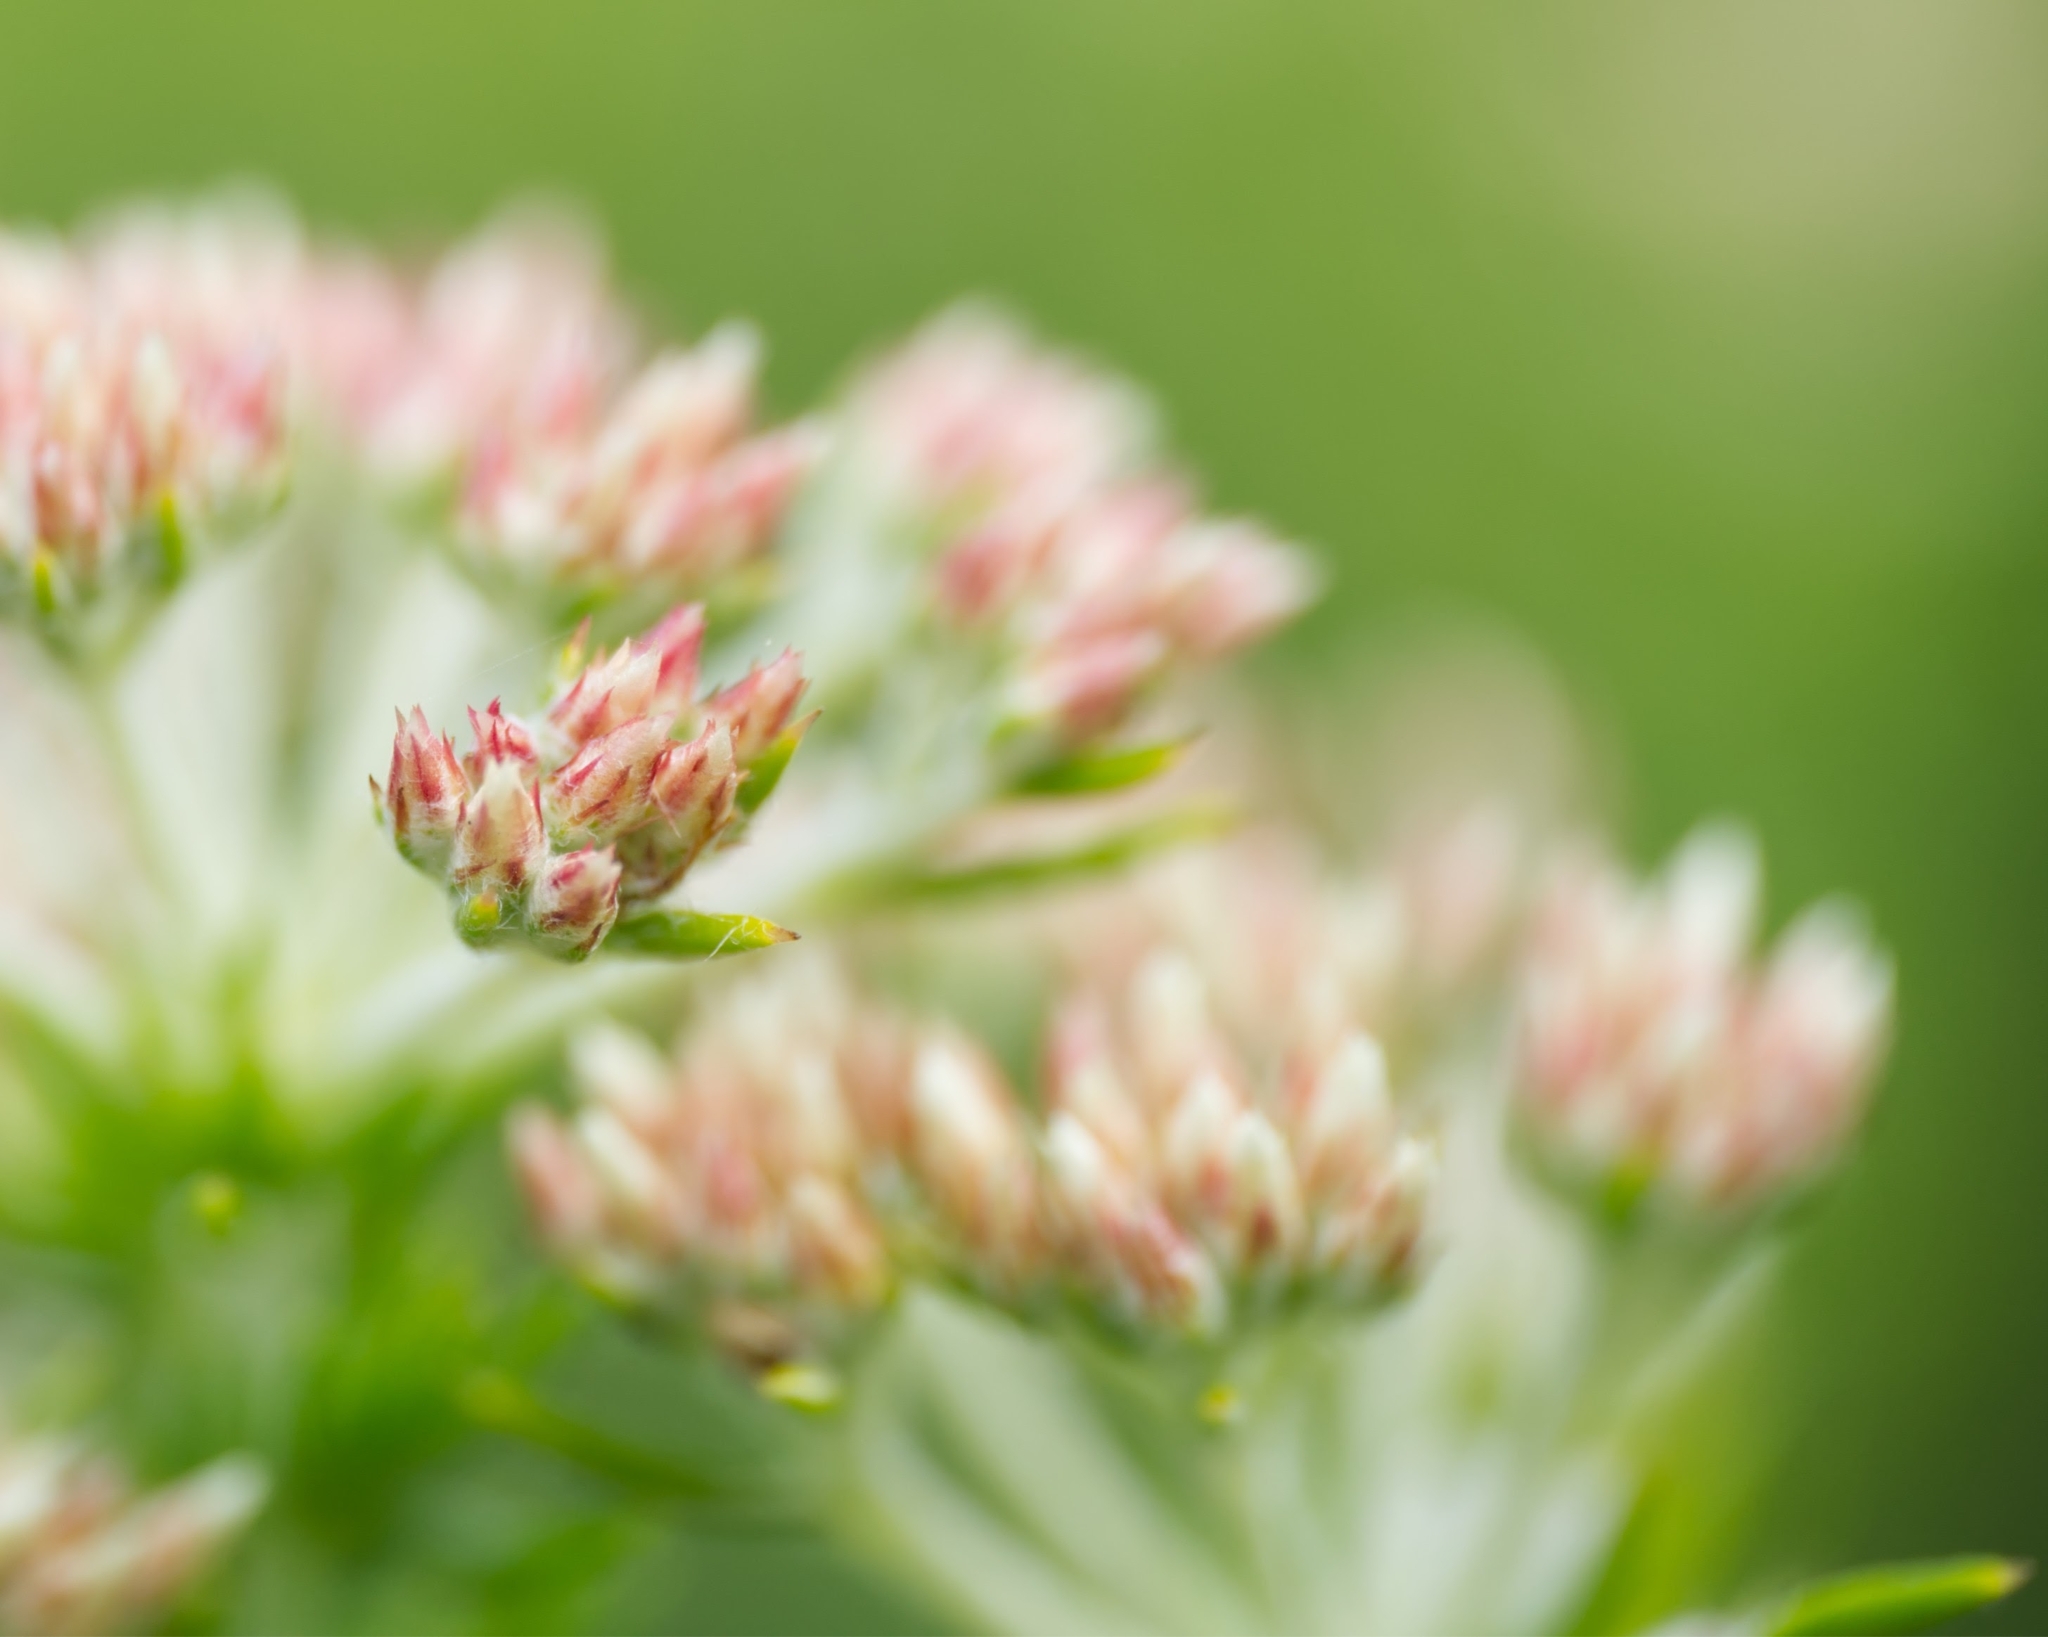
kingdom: Plantae
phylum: Tracheophyta
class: Magnoliopsida
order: Asterales
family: Asteraceae
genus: Metalasia
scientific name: Metalasia trivialis
